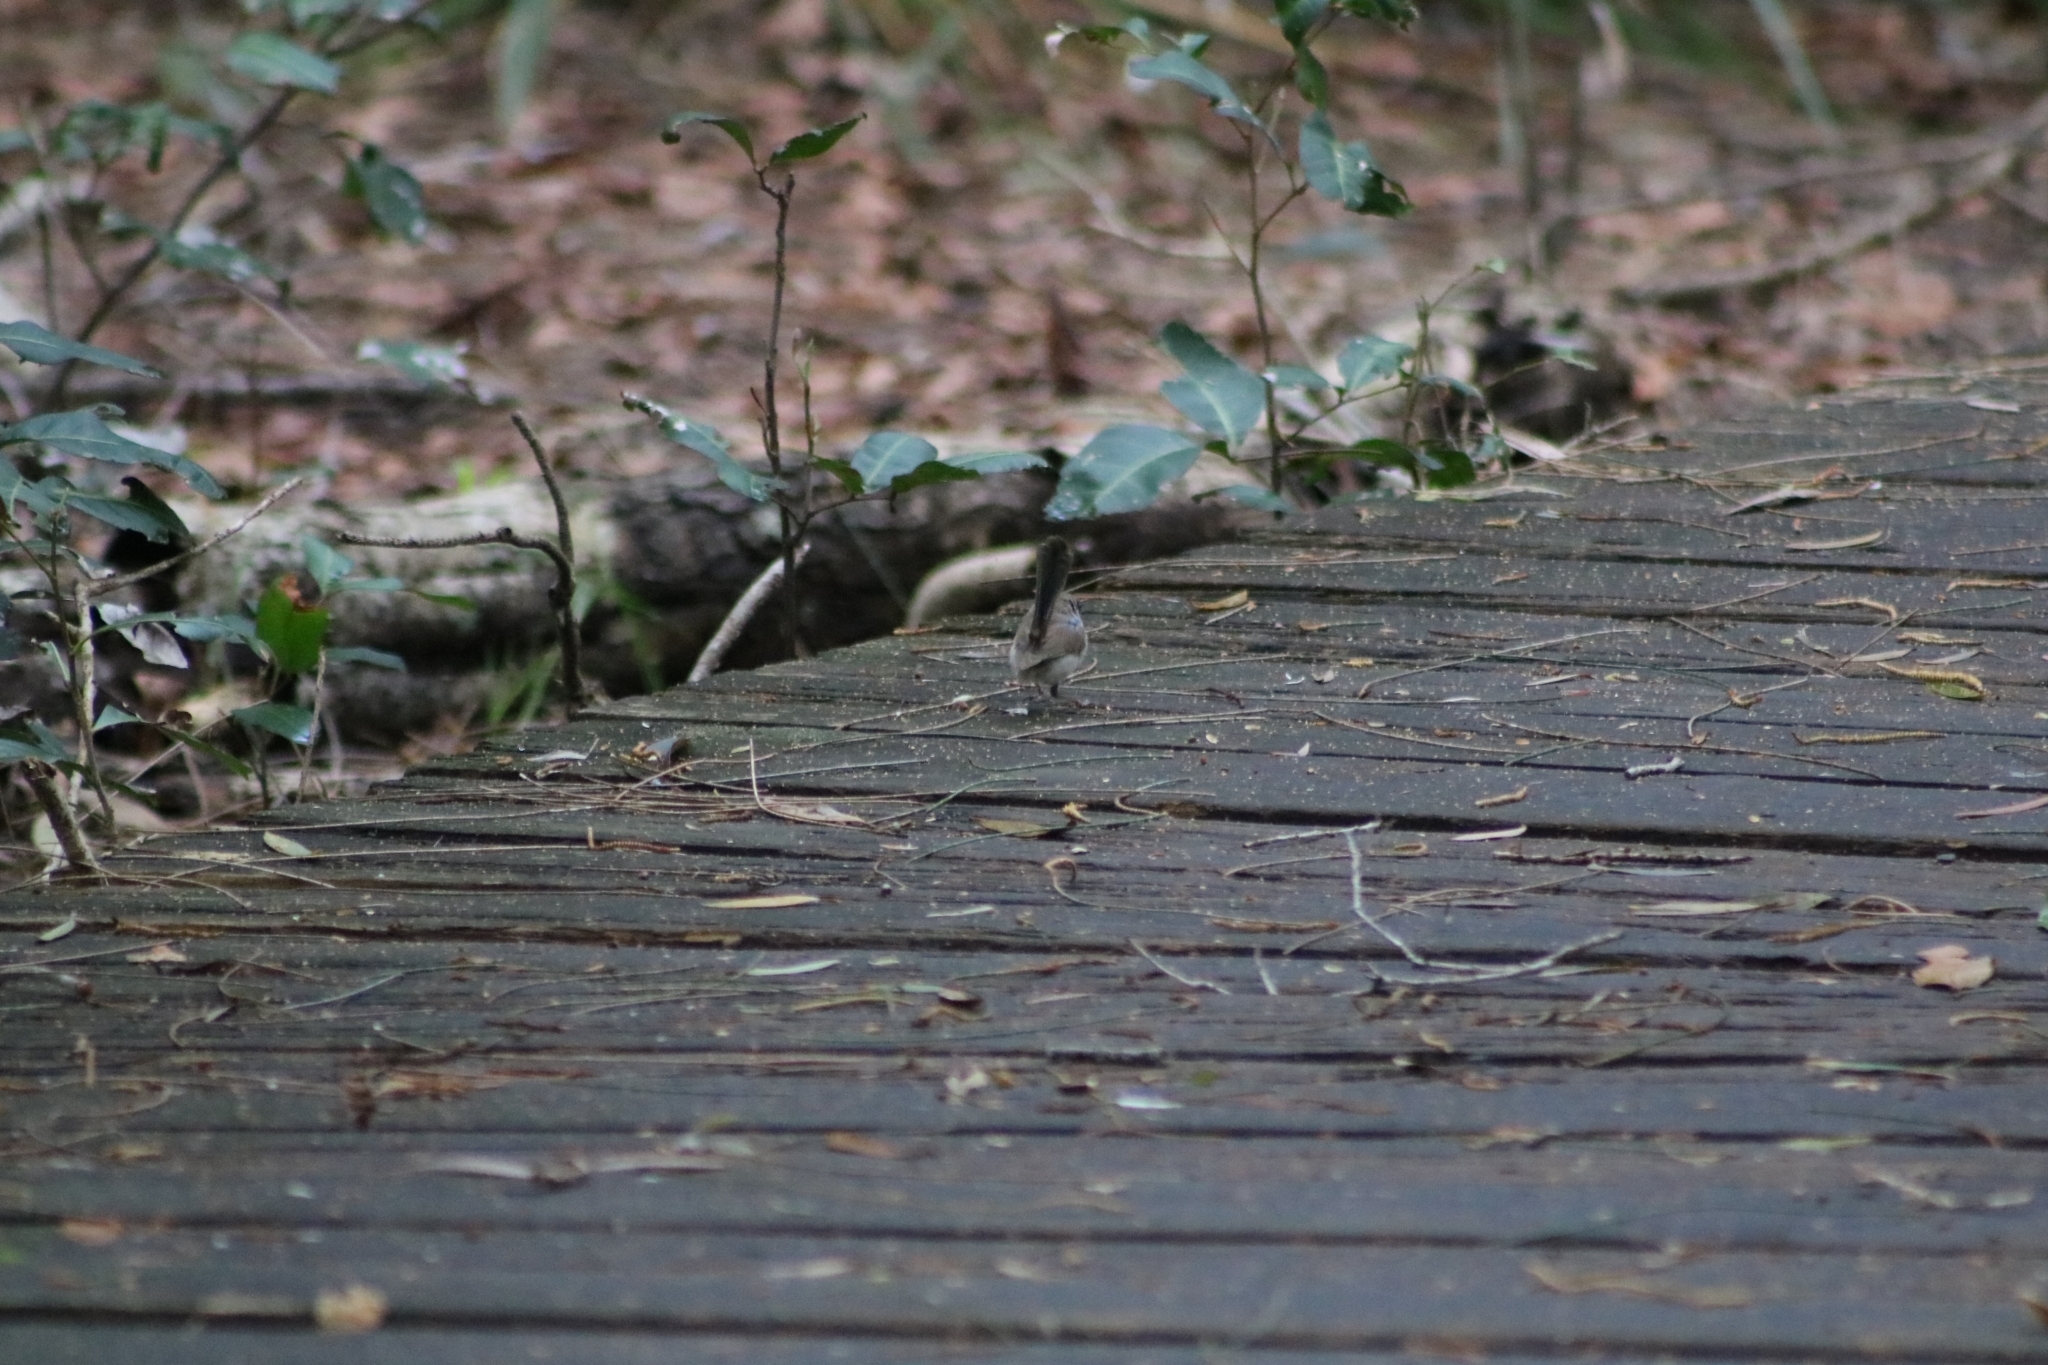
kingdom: Animalia
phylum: Chordata
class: Aves
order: Passeriformes
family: Maluridae
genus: Malurus
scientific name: Malurus cyaneus
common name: Superb fairywren
